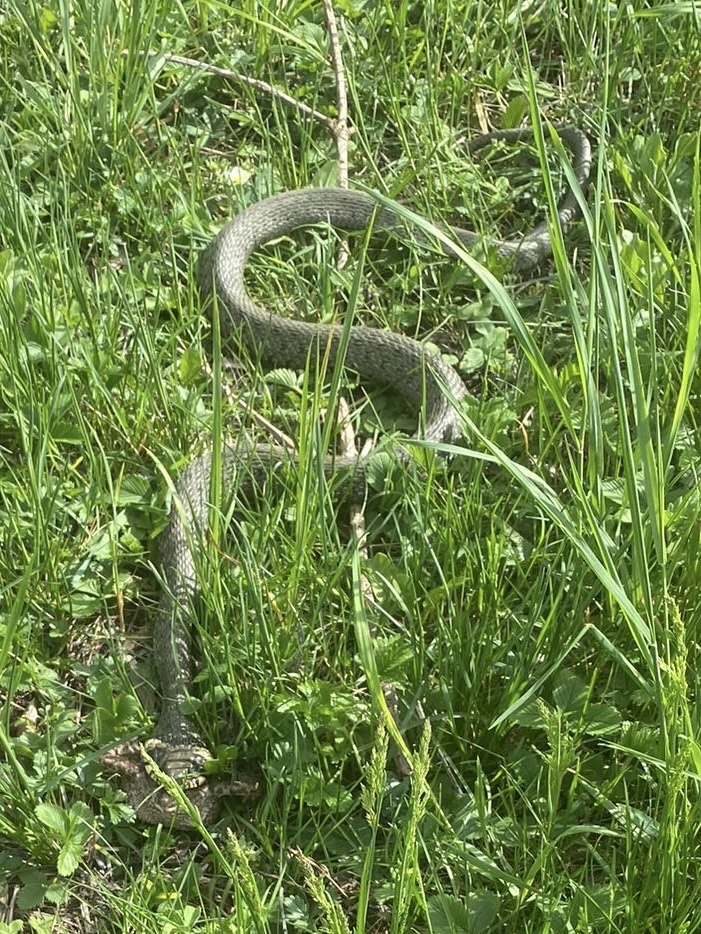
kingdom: Animalia
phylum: Chordata
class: Squamata
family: Colubridae
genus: Natrix
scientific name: Natrix natrix
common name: Grass snake
